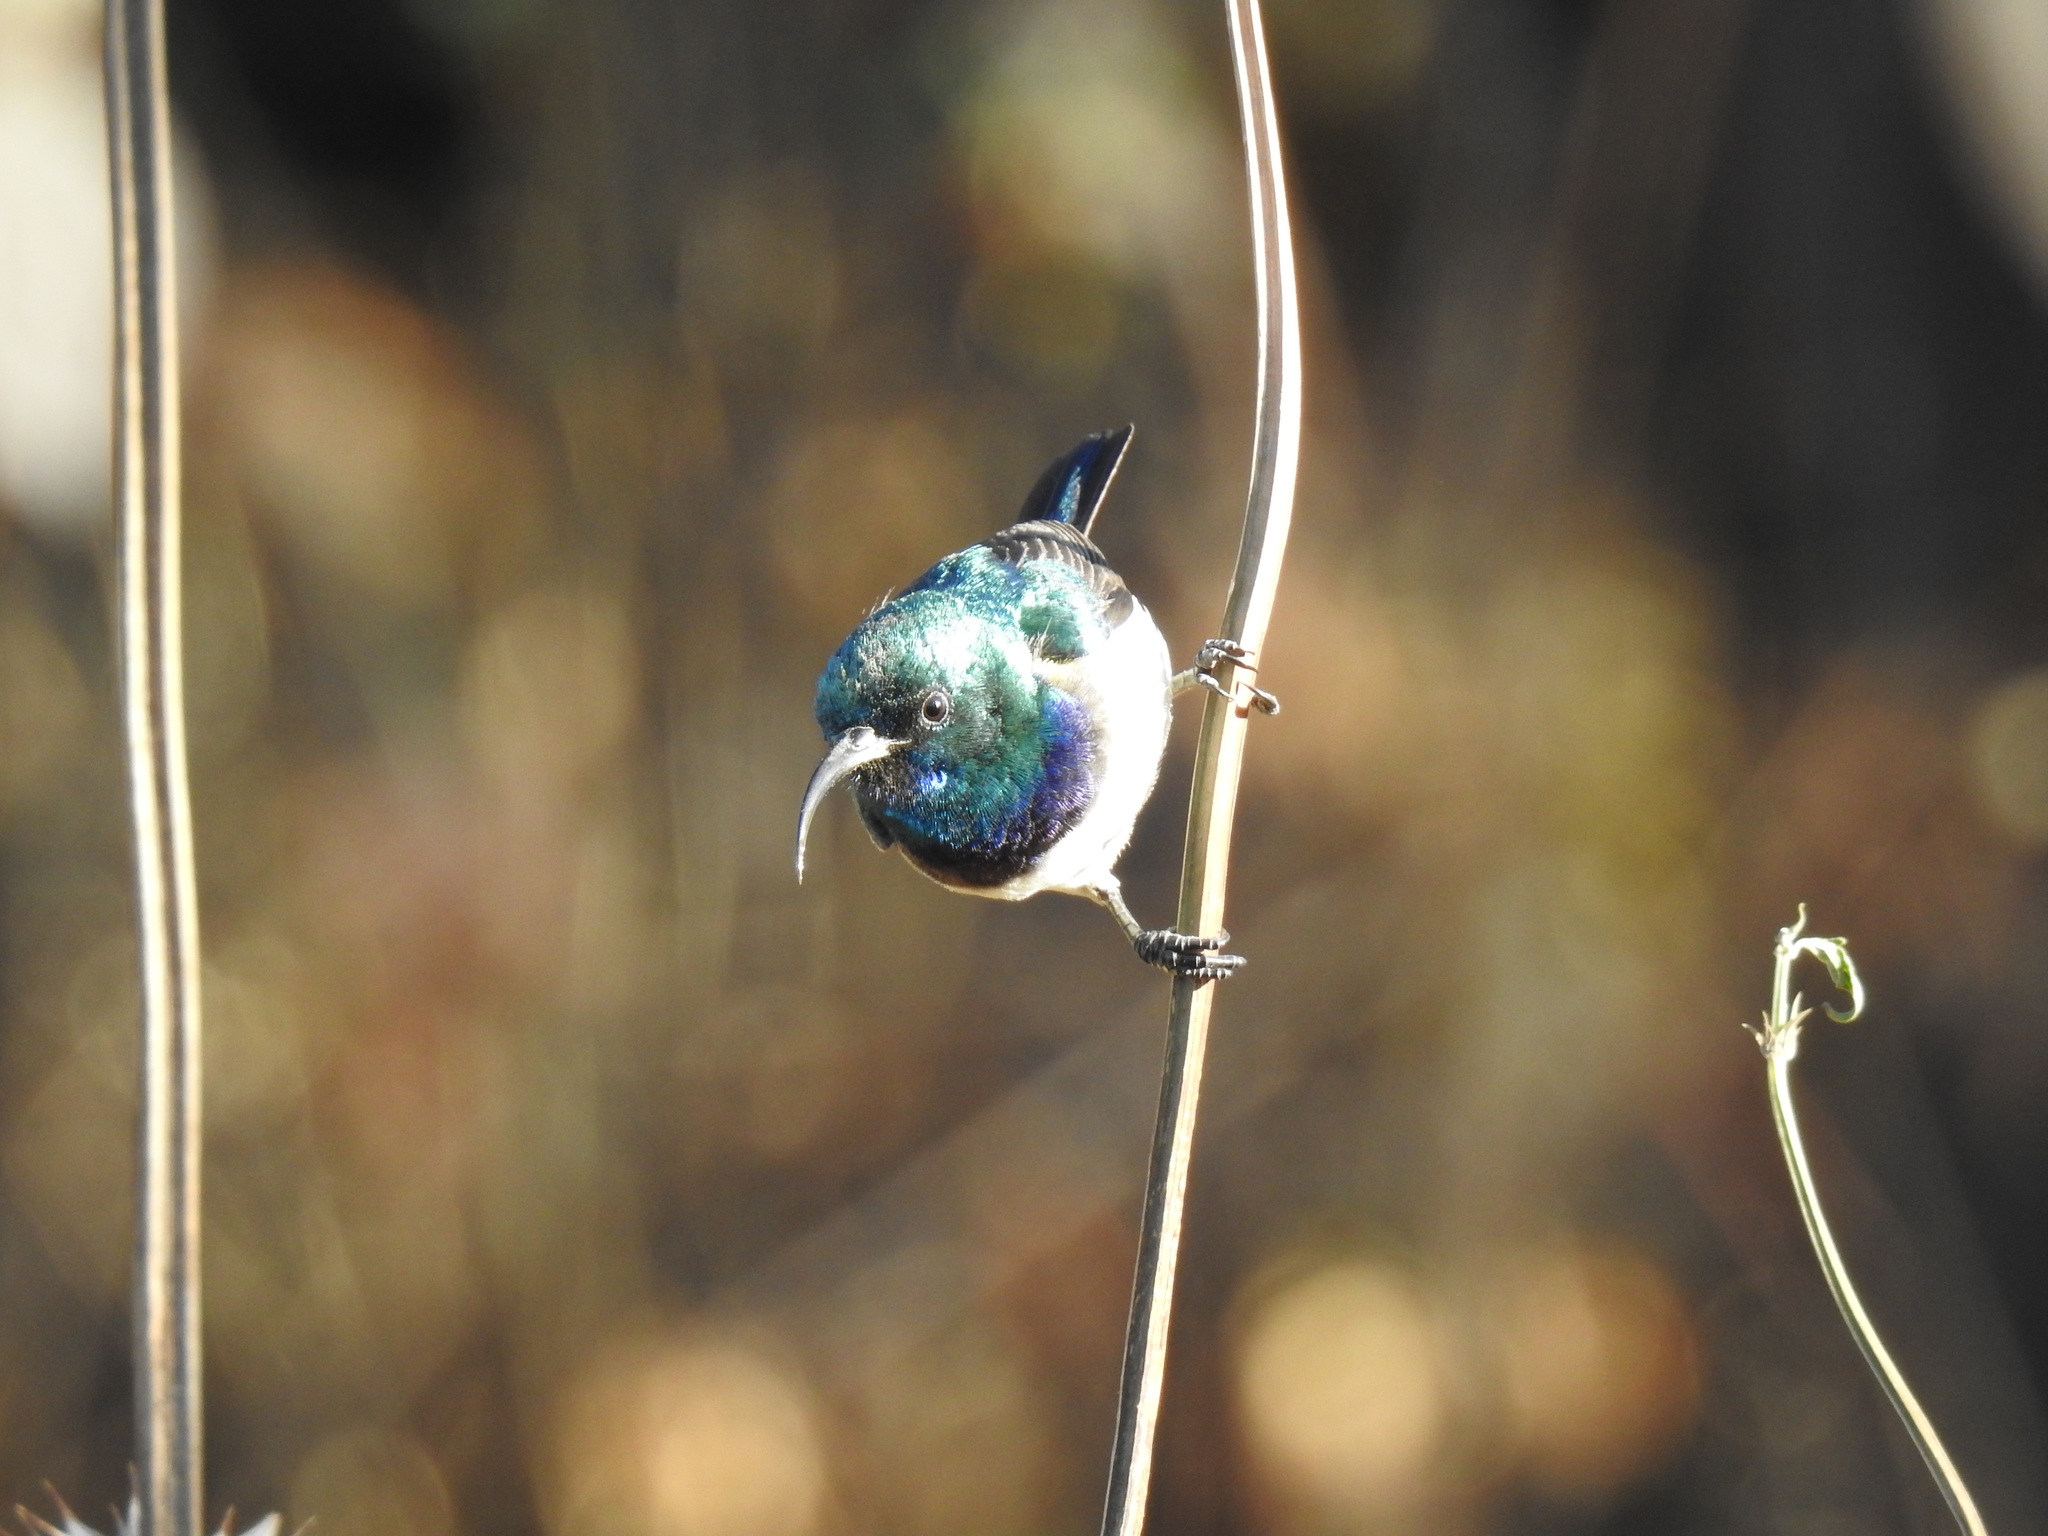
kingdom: Animalia
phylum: Chordata
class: Aves
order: Passeriformes
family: Nectariniidae
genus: Cinnyris
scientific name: Cinnyris talatala
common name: White-bellied sunbird
